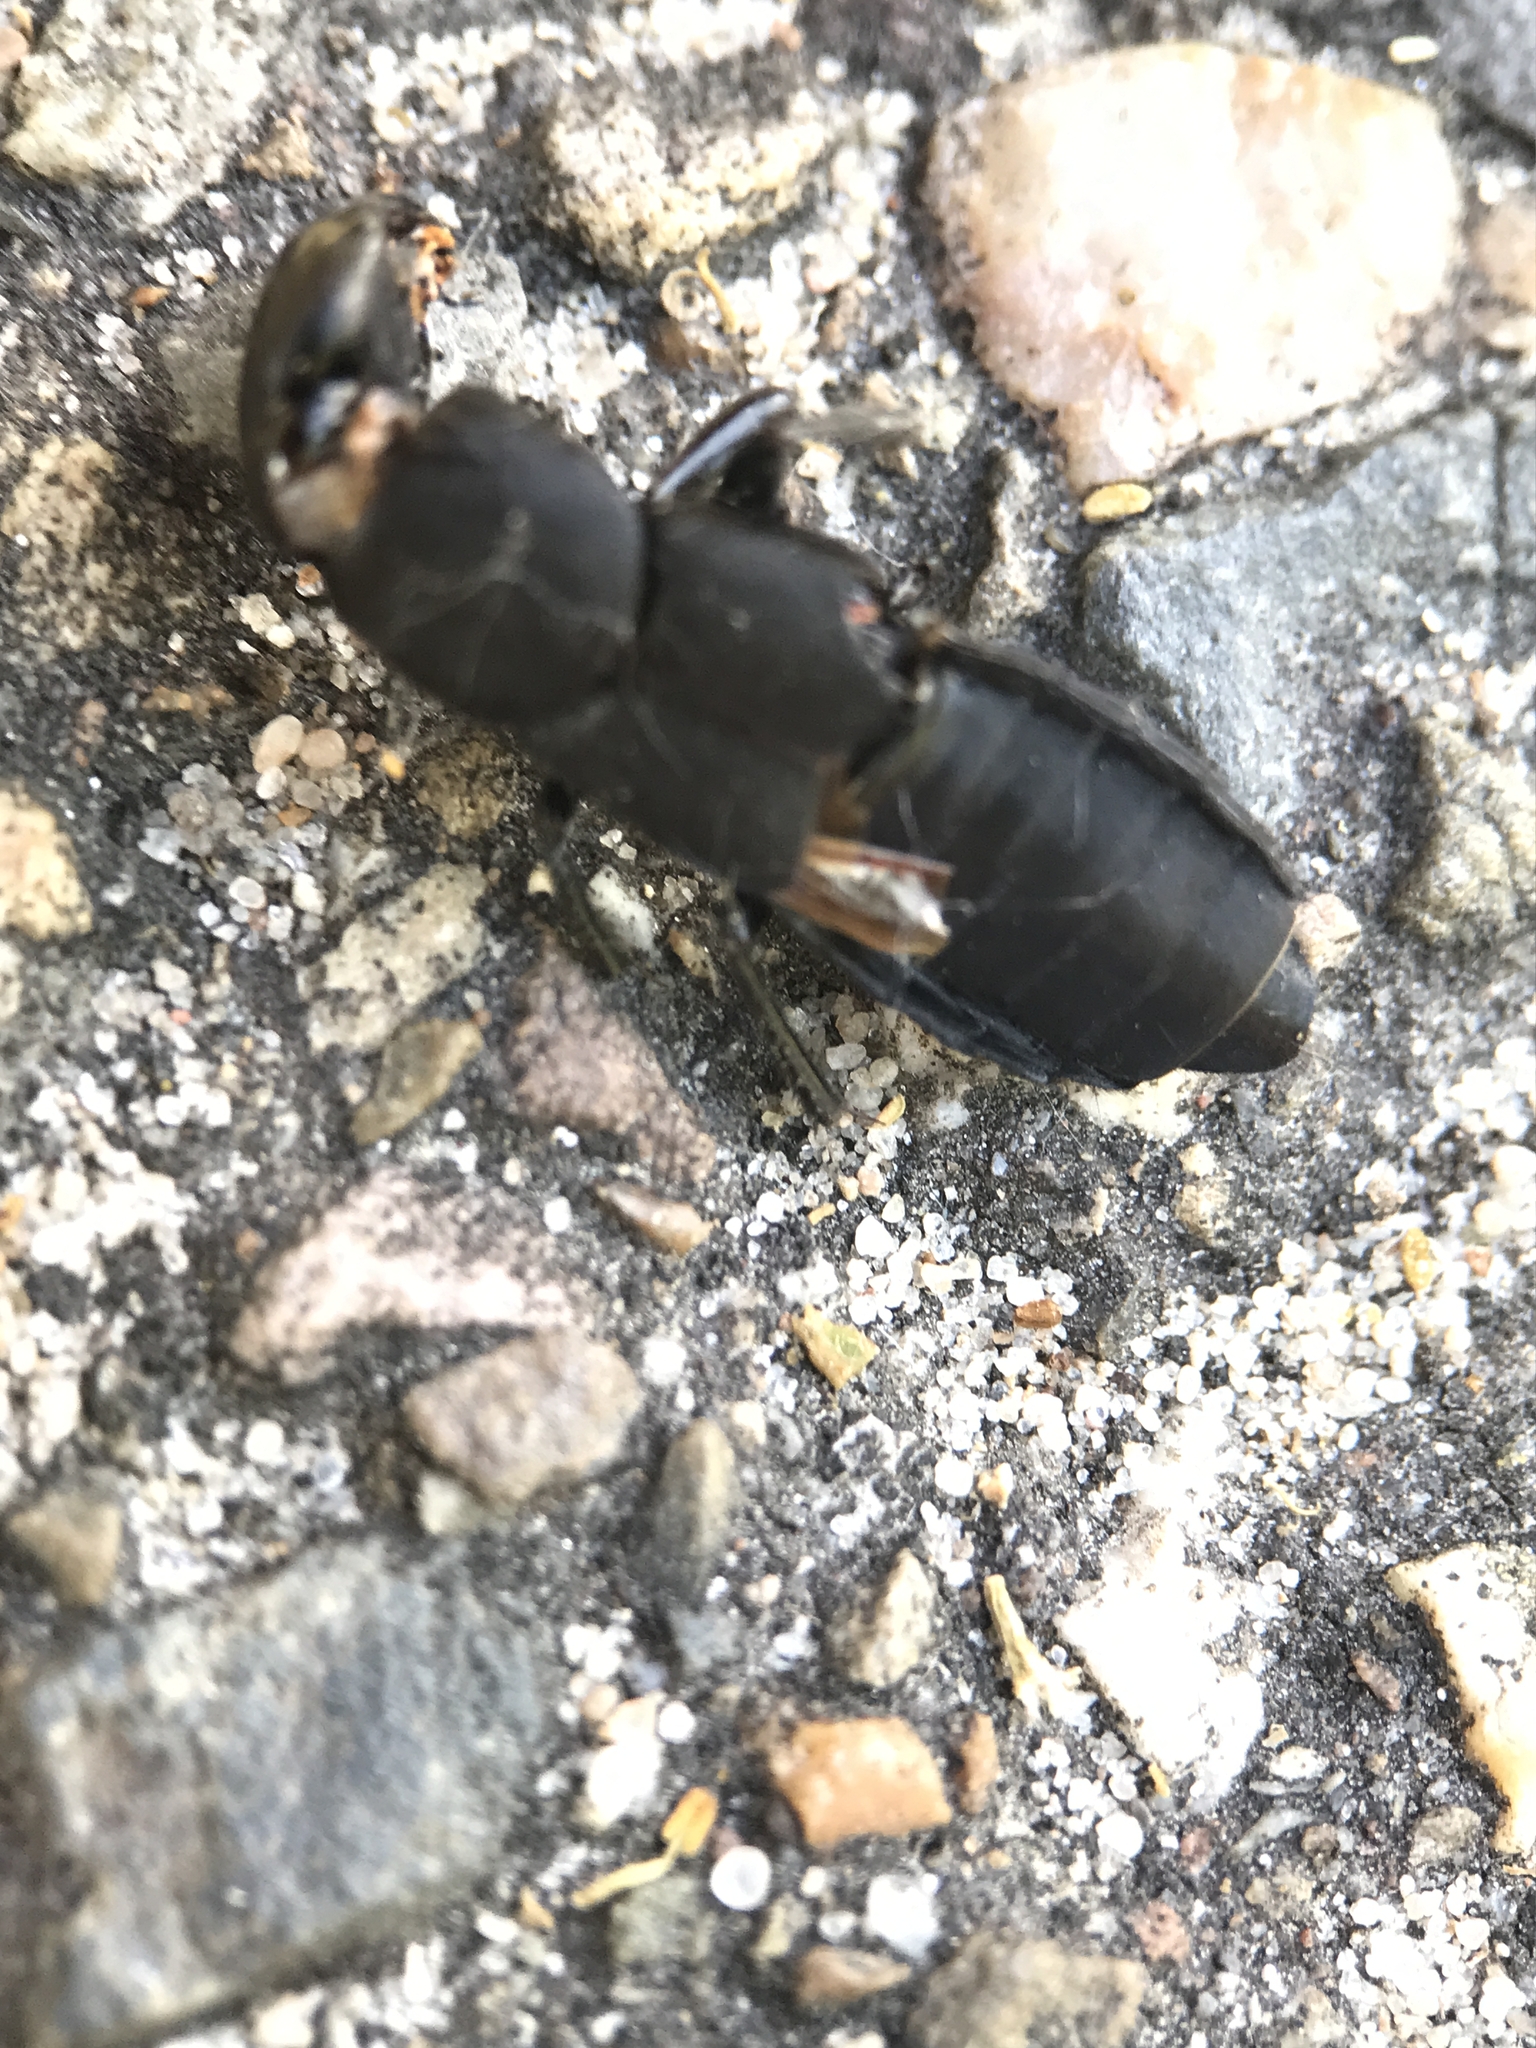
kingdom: Animalia
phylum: Arthropoda
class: Insecta
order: Coleoptera
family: Staphylinidae
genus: Ocypus
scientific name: Ocypus olens
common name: Devil's coach-horse
